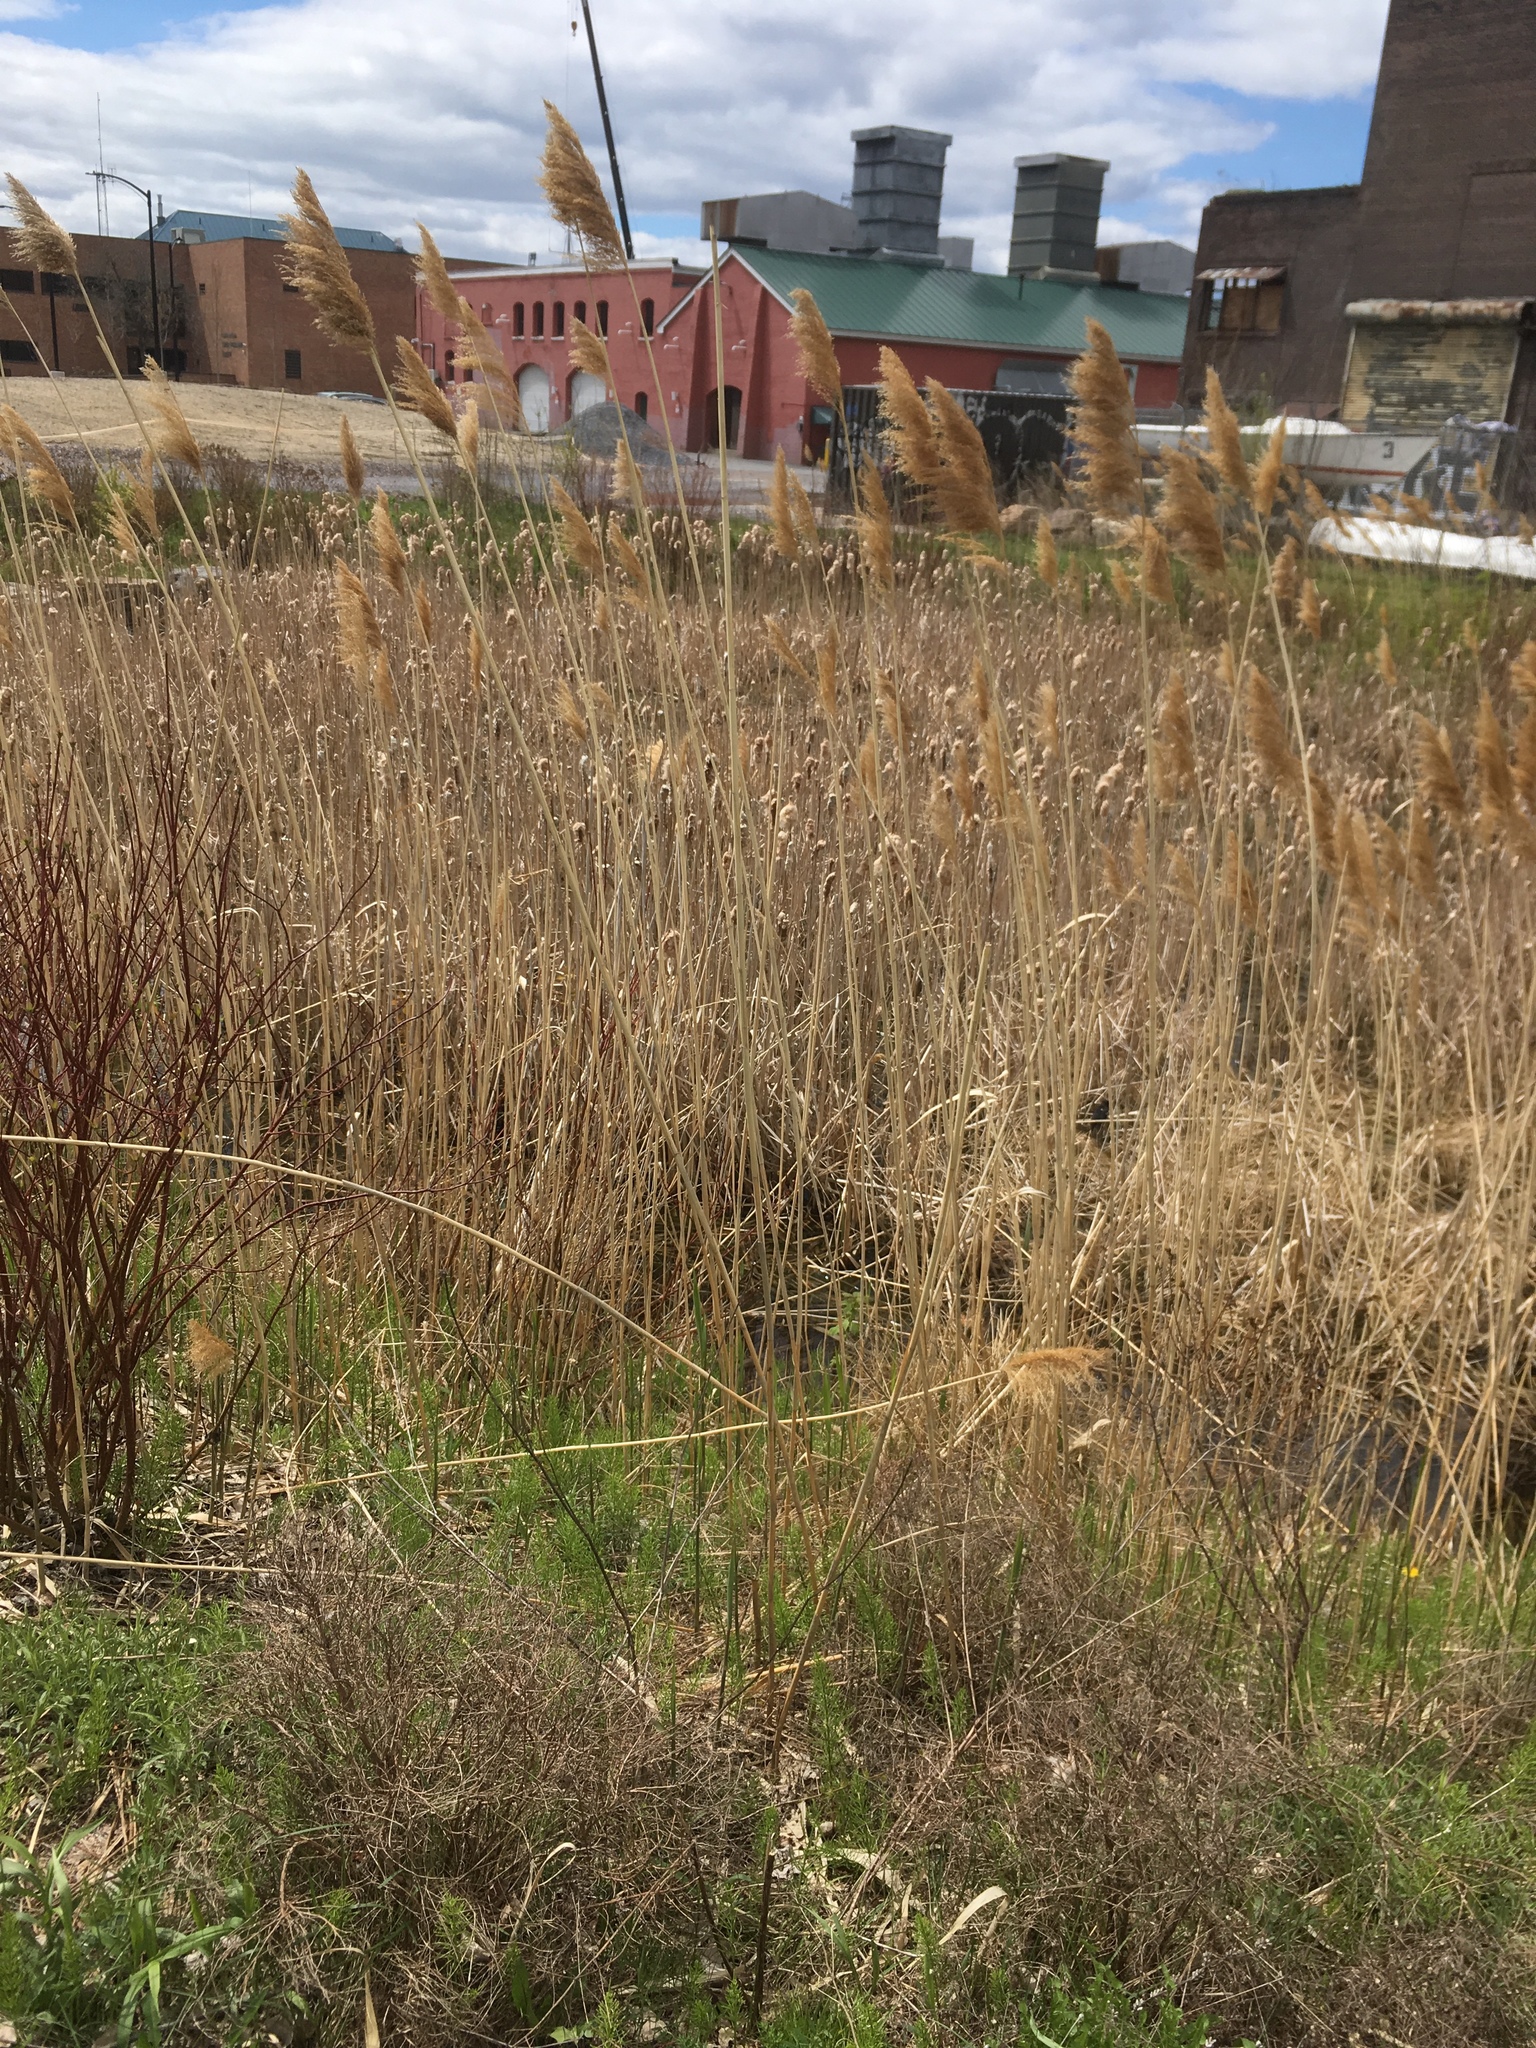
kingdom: Plantae
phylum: Tracheophyta
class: Liliopsida
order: Poales
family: Poaceae
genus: Phragmites
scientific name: Phragmites australis
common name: Common reed
